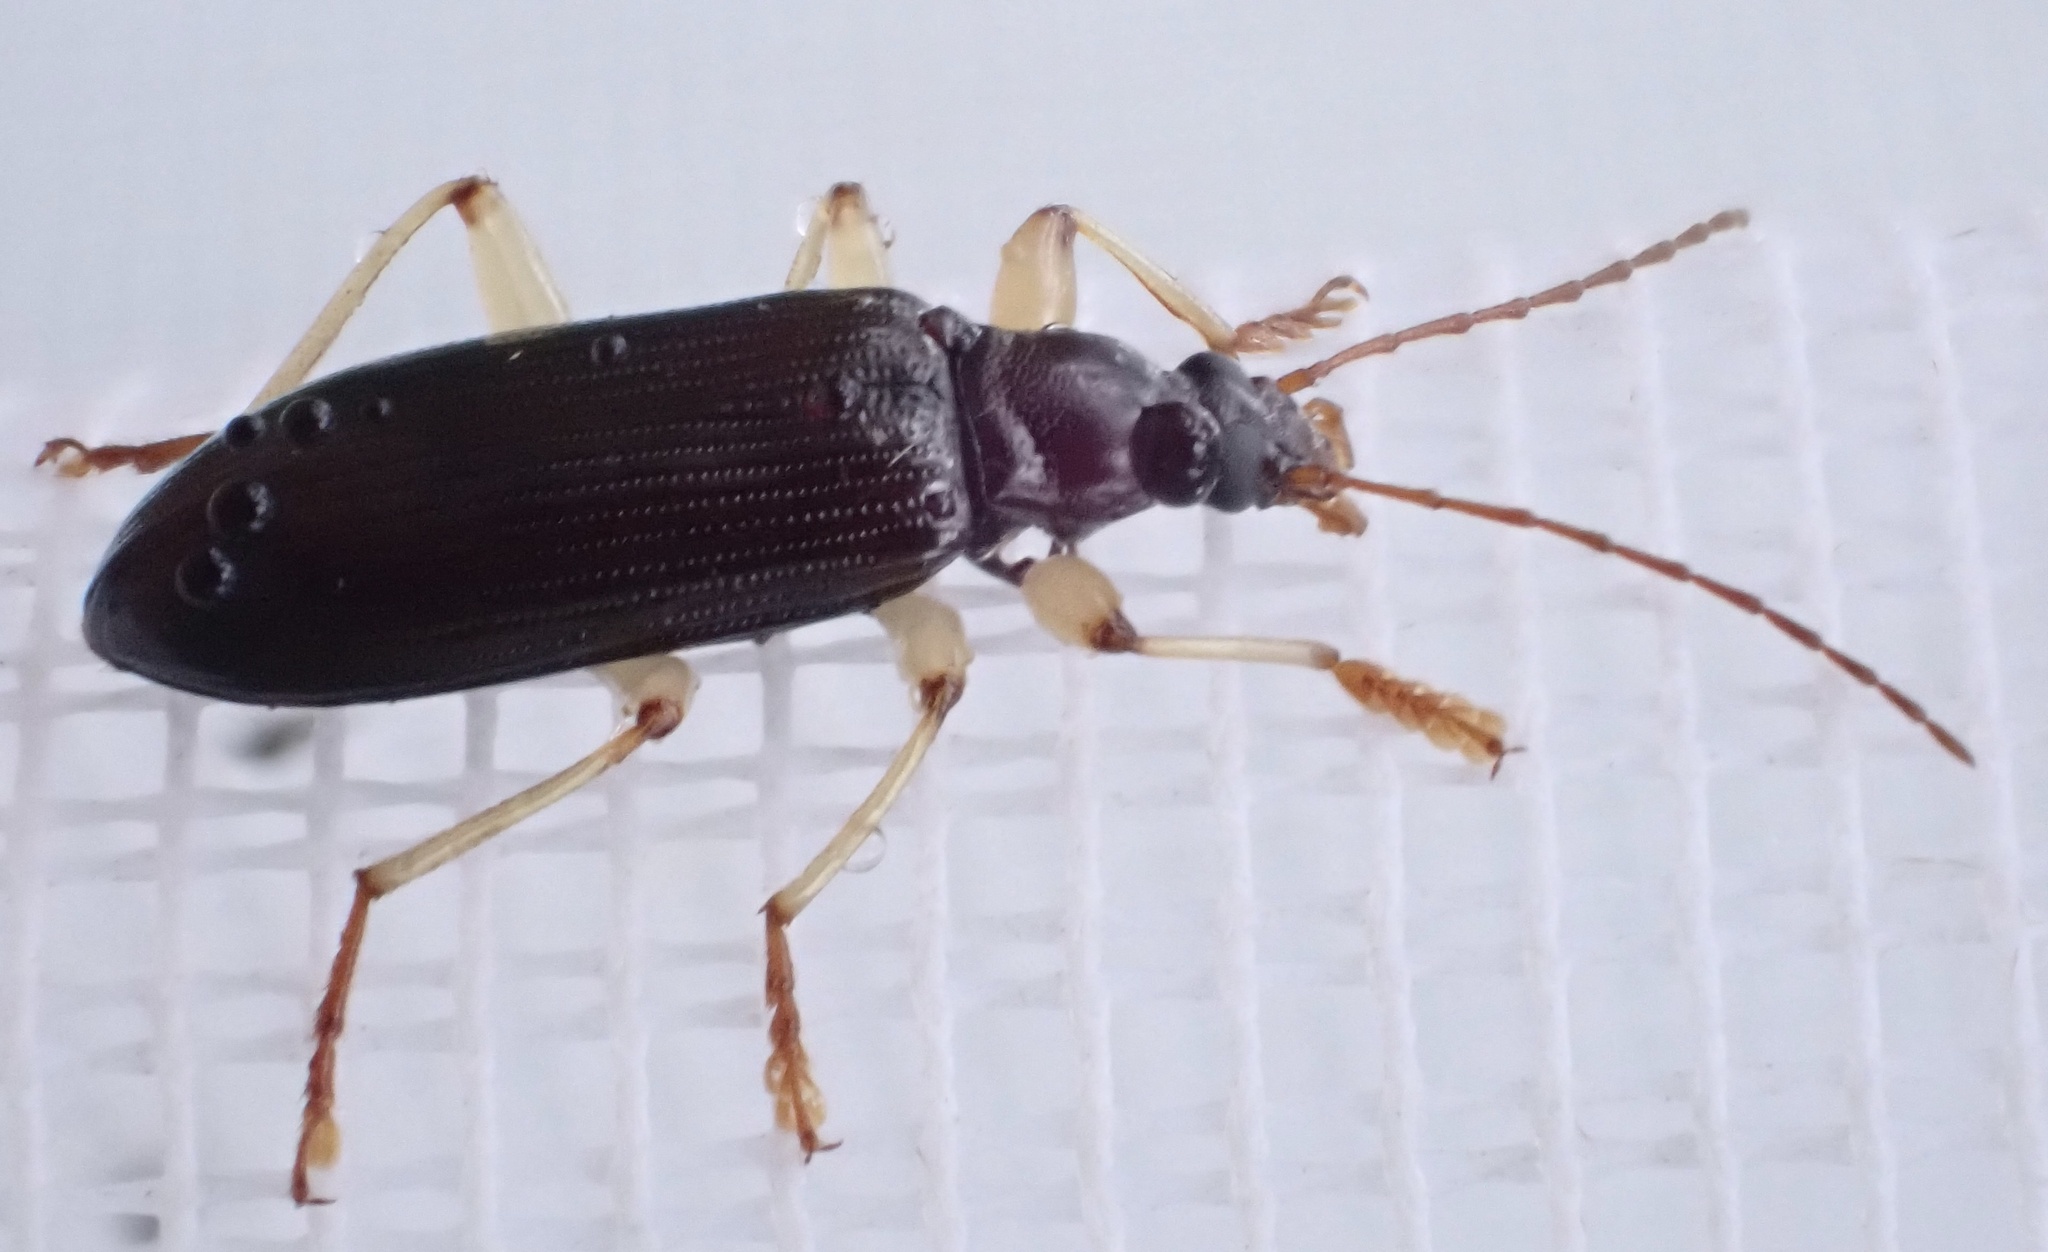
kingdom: Animalia
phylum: Arthropoda
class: Insecta
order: Coleoptera
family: Tenebrionidae
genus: Dimorphochilus
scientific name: Dimorphochilus
